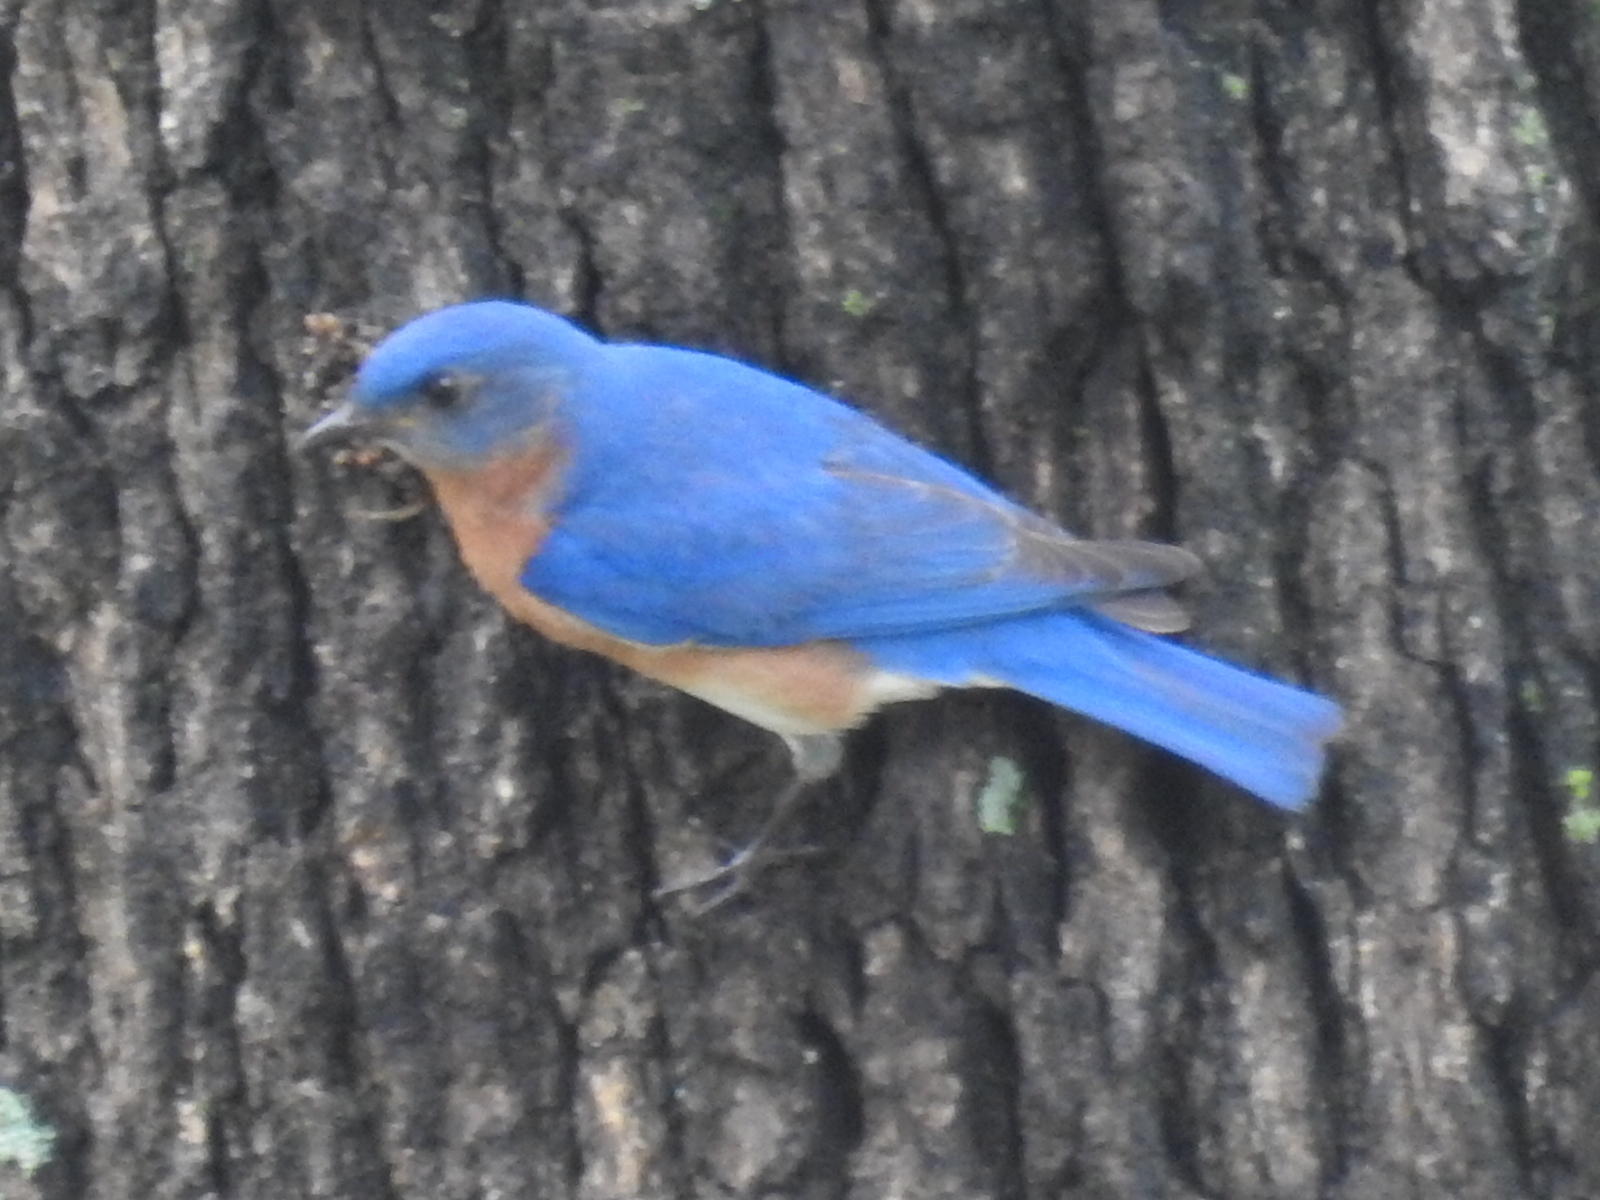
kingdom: Animalia
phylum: Chordata
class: Aves
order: Passeriformes
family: Turdidae
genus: Sialia
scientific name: Sialia sialis
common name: Eastern bluebird
